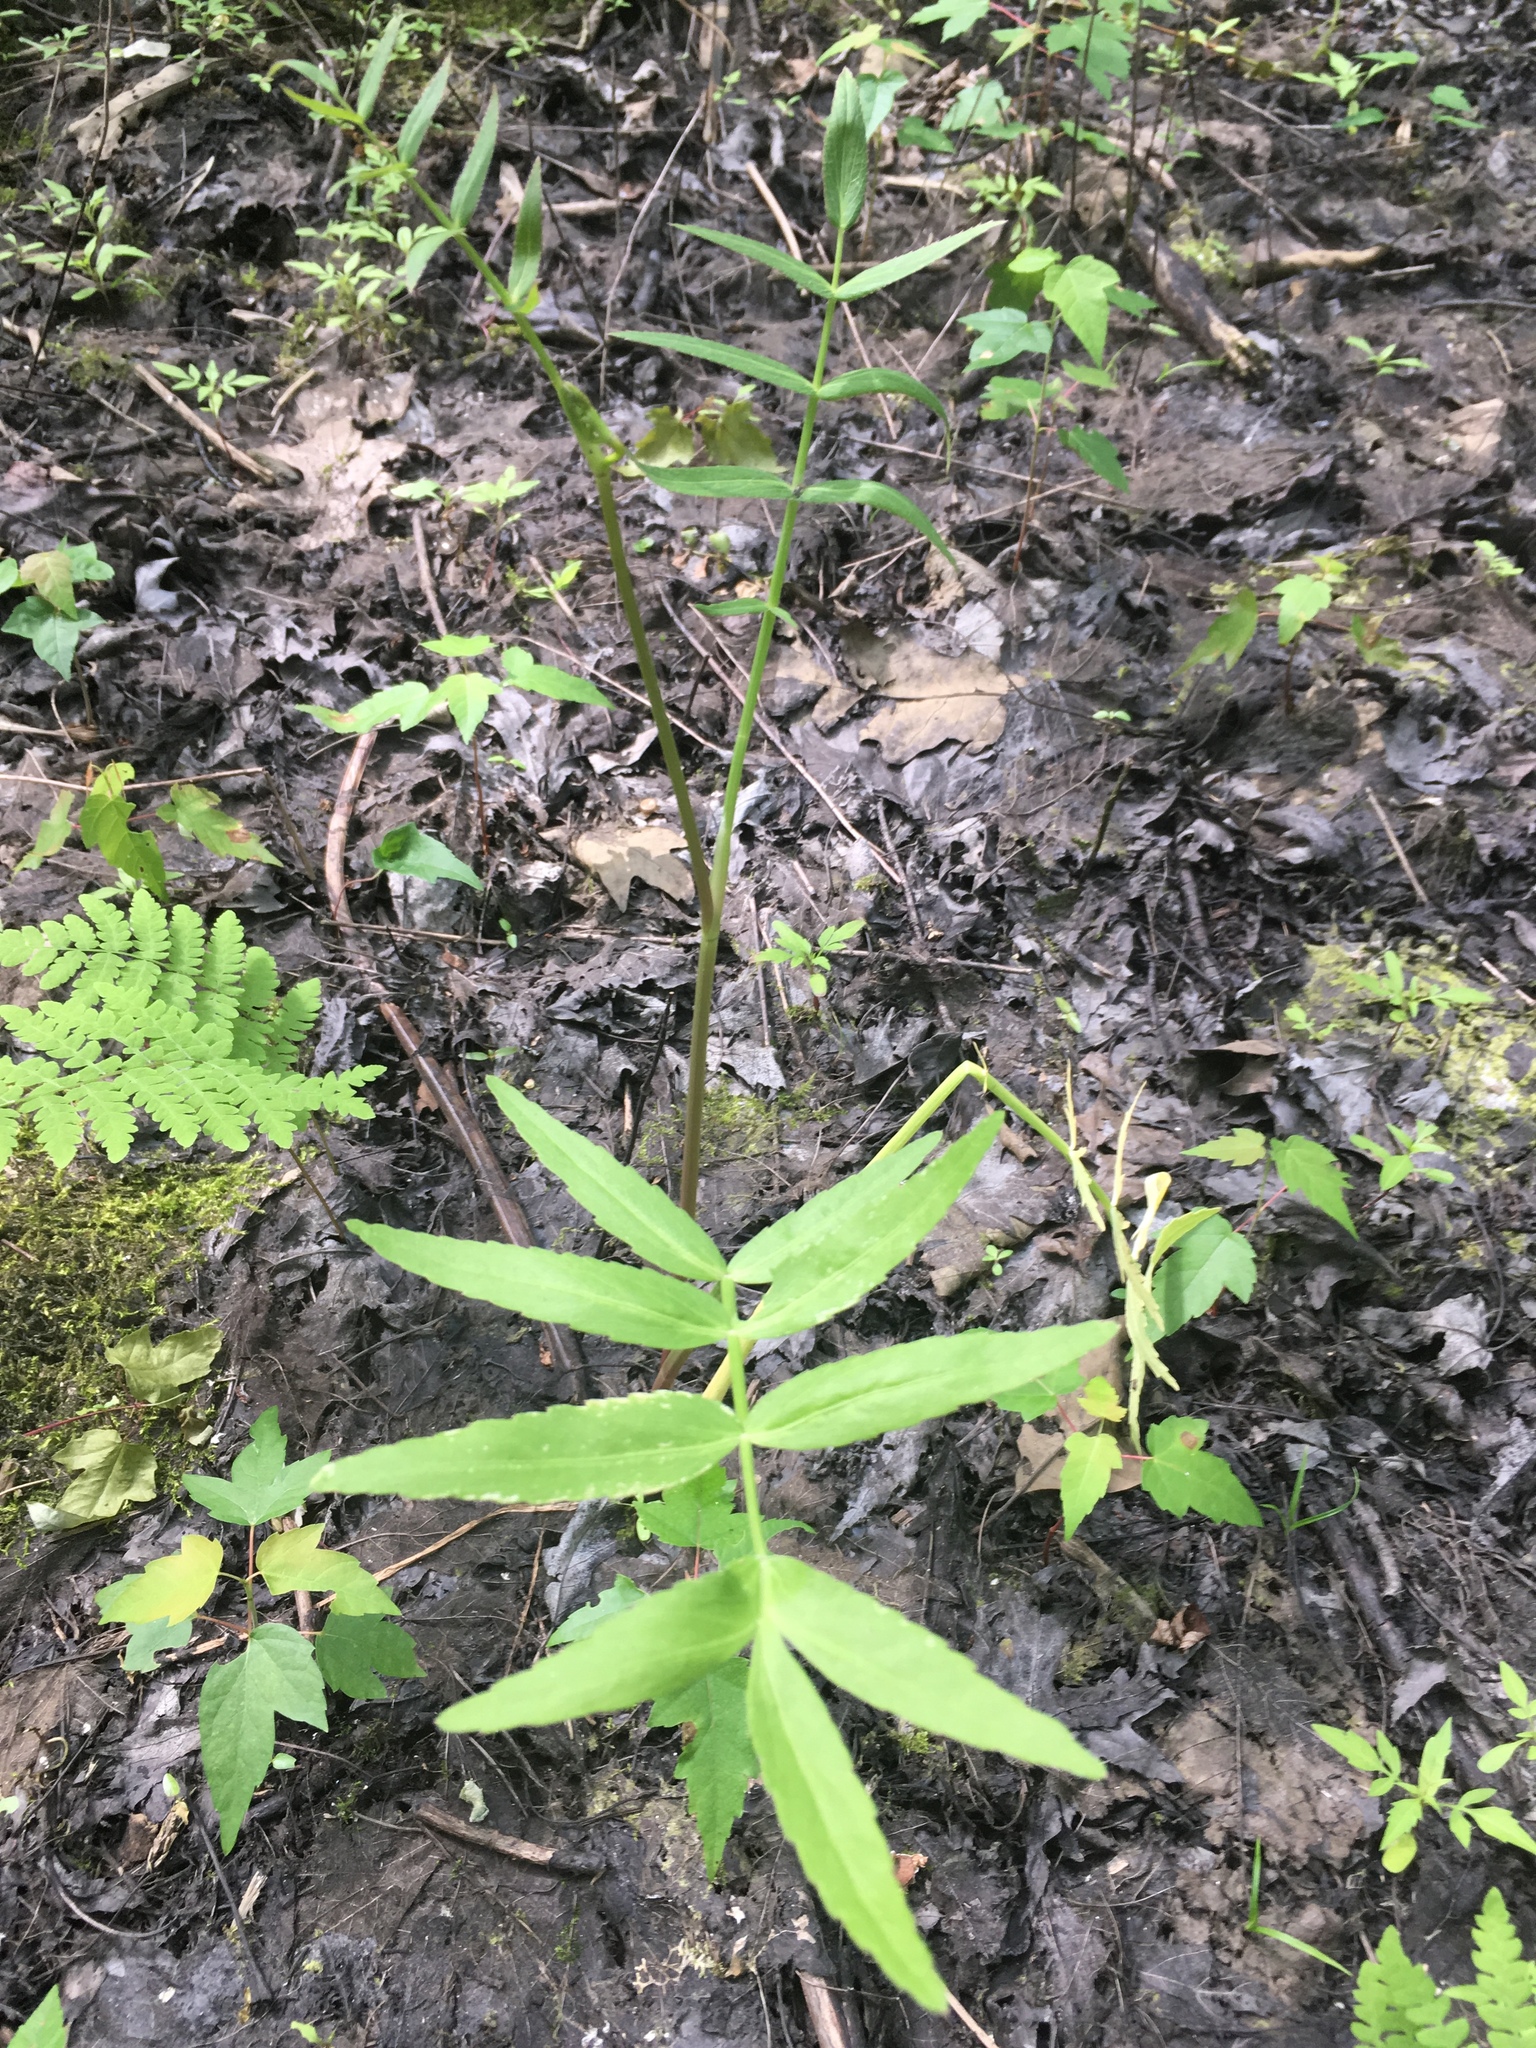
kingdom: Plantae
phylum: Tracheophyta
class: Magnoliopsida
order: Apiales
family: Apiaceae
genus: Sium
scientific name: Sium suave
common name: Hemlock water-parsnip
